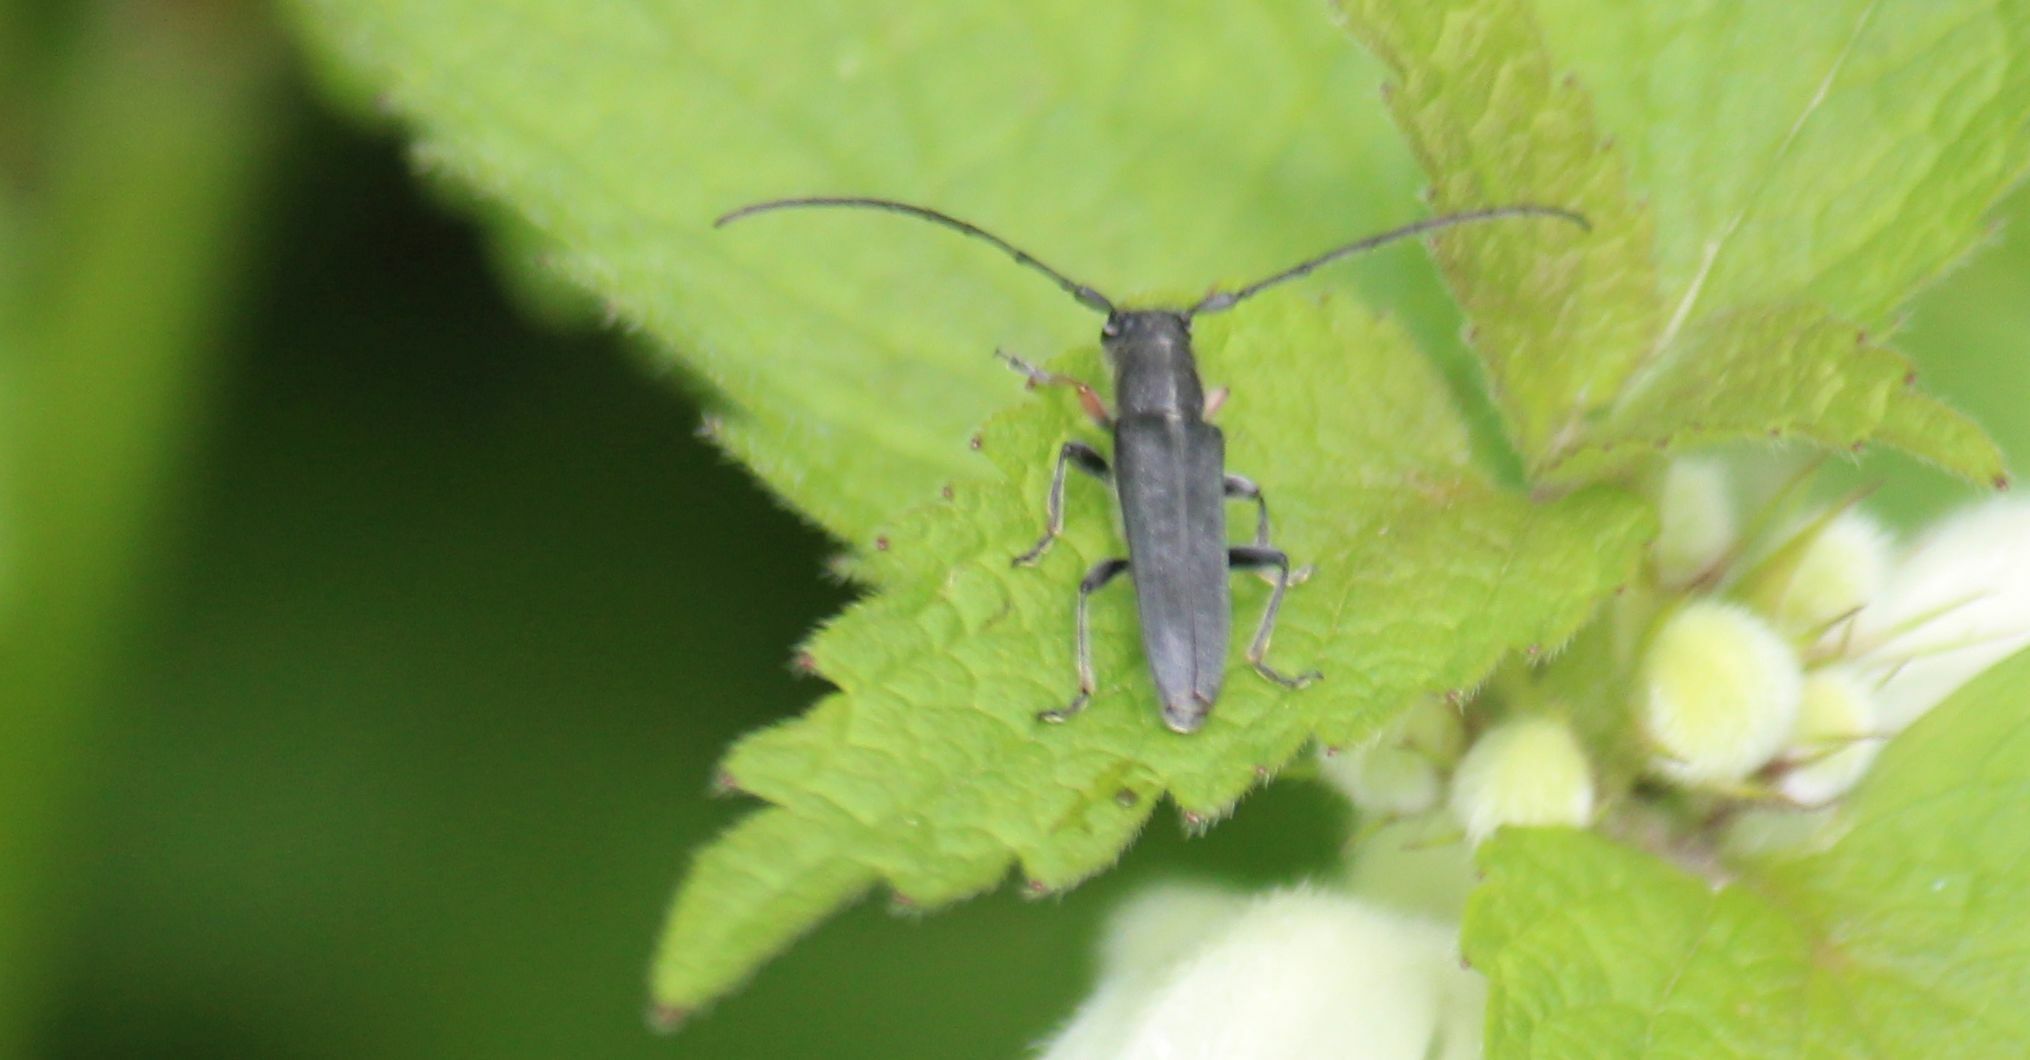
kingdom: Animalia
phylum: Arthropoda
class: Insecta
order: Coleoptera
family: Cerambycidae
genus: Phytoecia
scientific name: Phytoecia cylindrica
